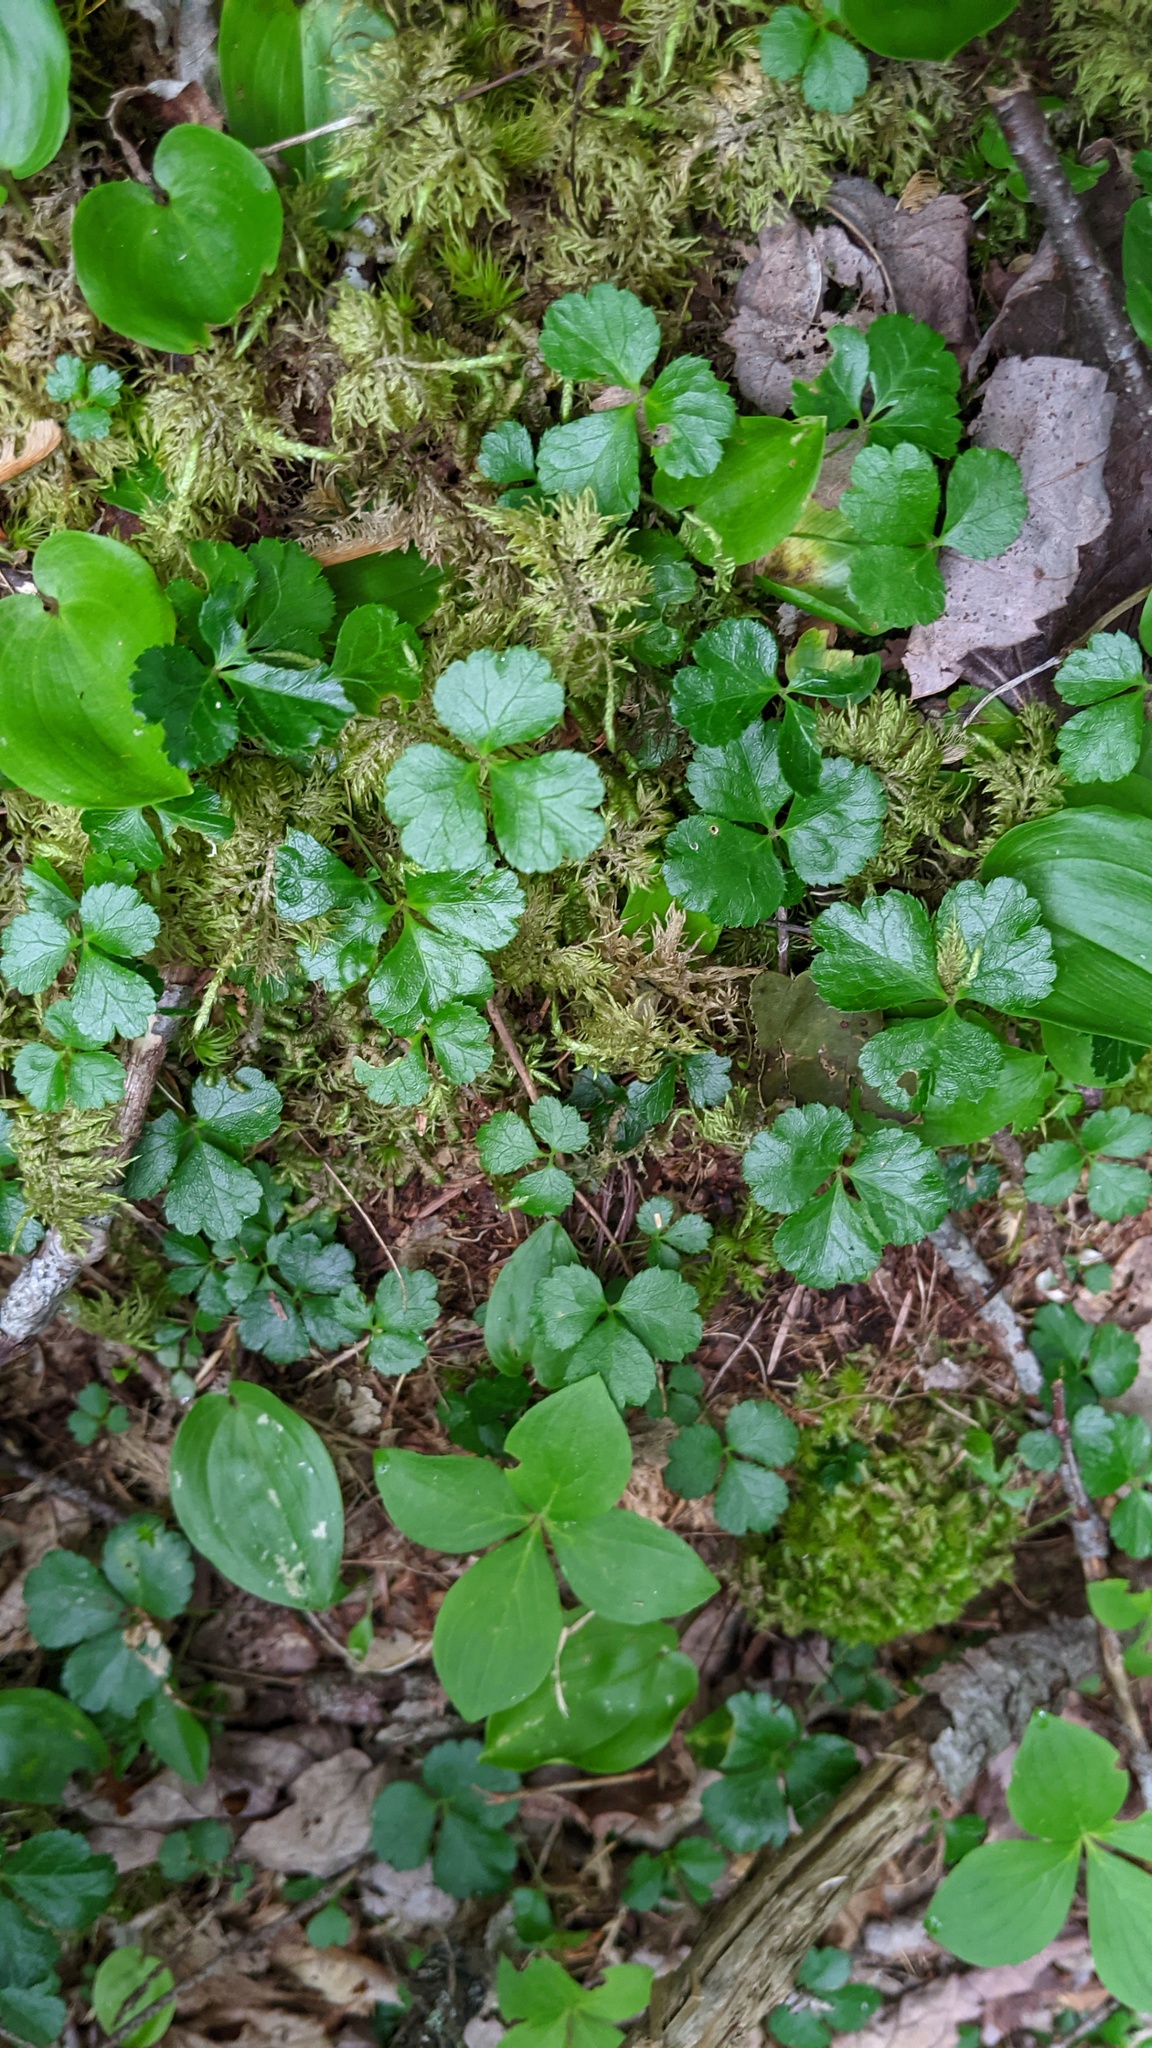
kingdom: Plantae
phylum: Tracheophyta
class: Magnoliopsida
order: Ranunculales
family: Ranunculaceae
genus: Coptis
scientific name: Coptis trifolia
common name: Canker-root
